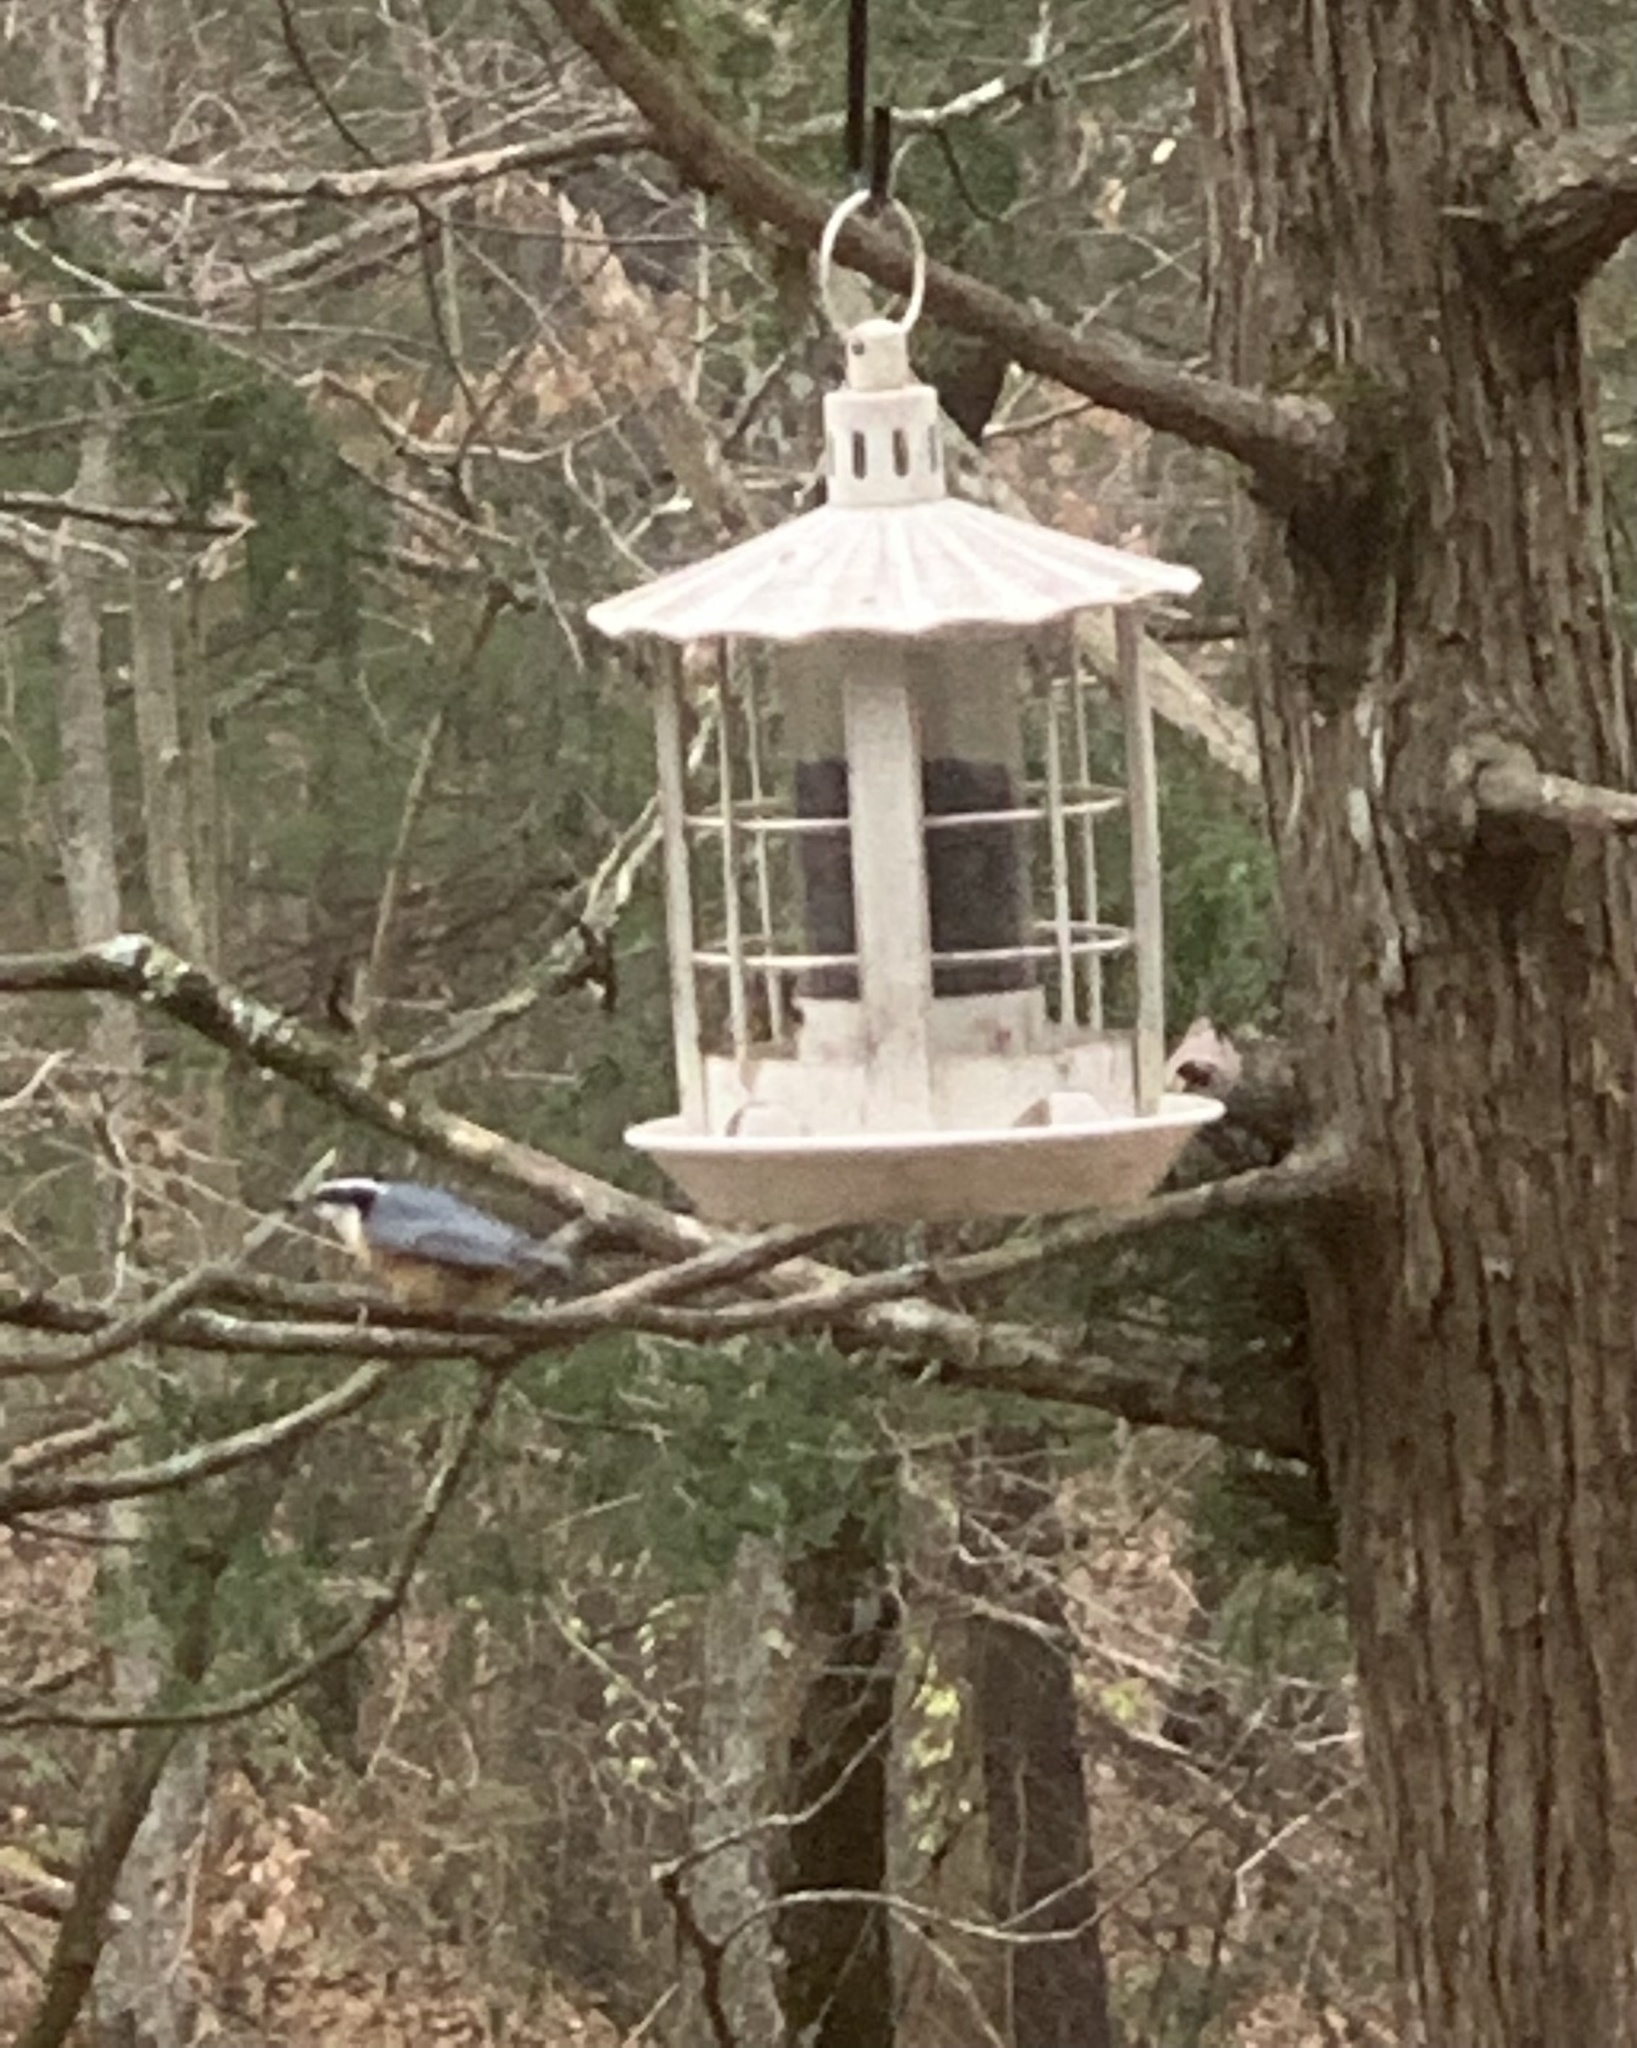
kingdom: Animalia
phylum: Chordata
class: Aves
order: Passeriformes
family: Sittidae
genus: Sitta
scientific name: Sitta canadensis
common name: Red-breasted nuthatch
